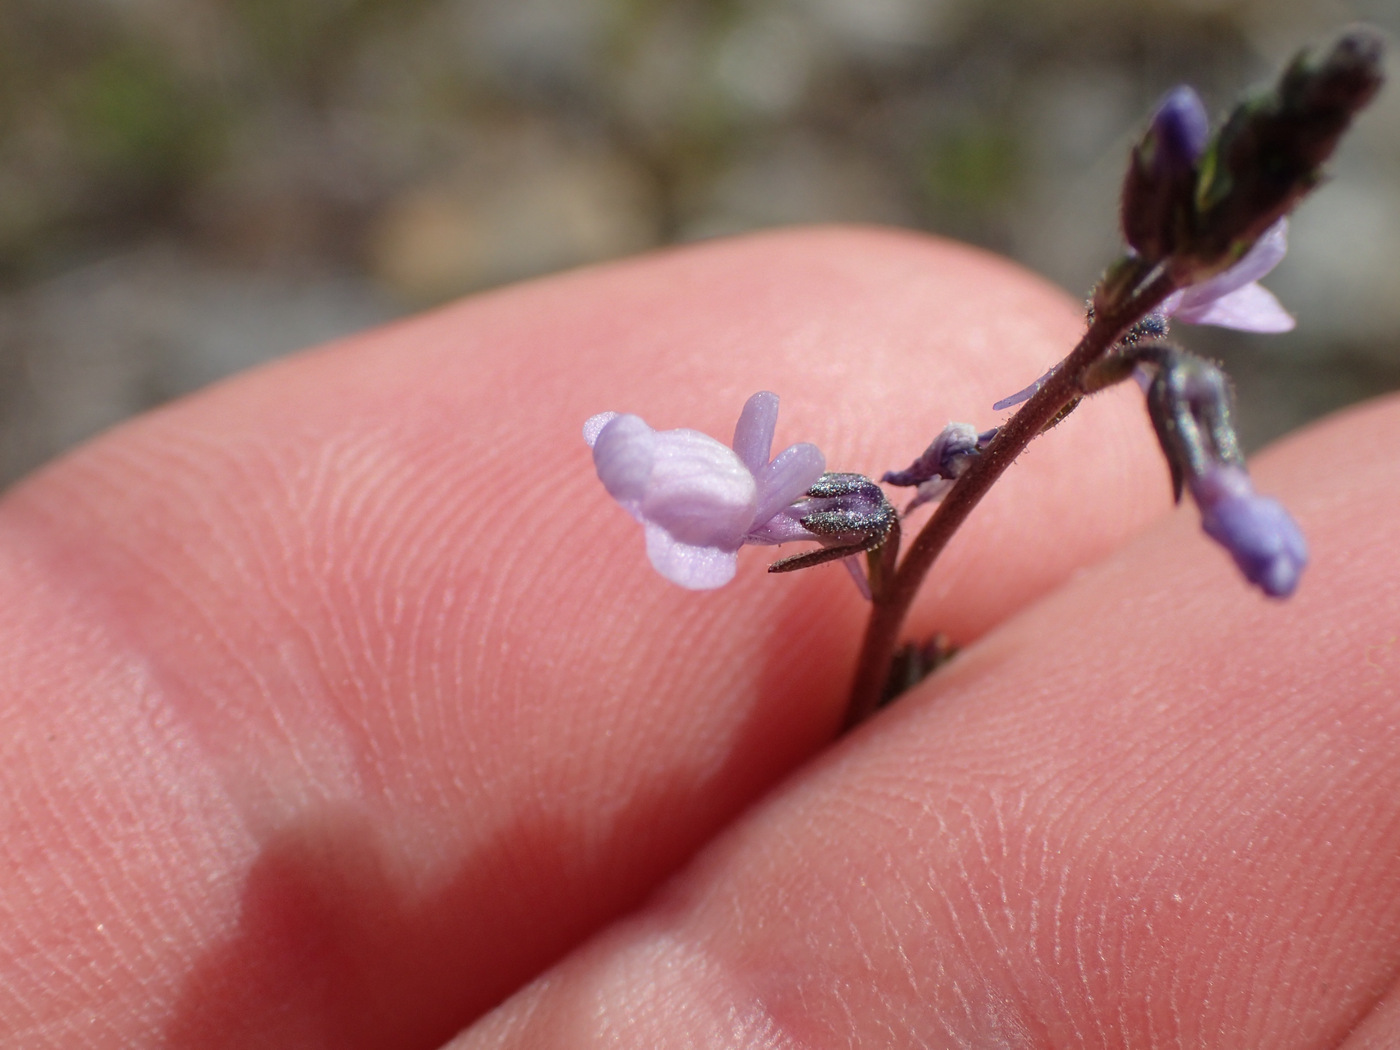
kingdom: Plantae
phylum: Tracheophyta
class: Magnoliopsida
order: Lamiales
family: Plantaginaceae
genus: Nuttallanthus
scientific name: Nuttallanthus canadensis
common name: Blue toadflax
